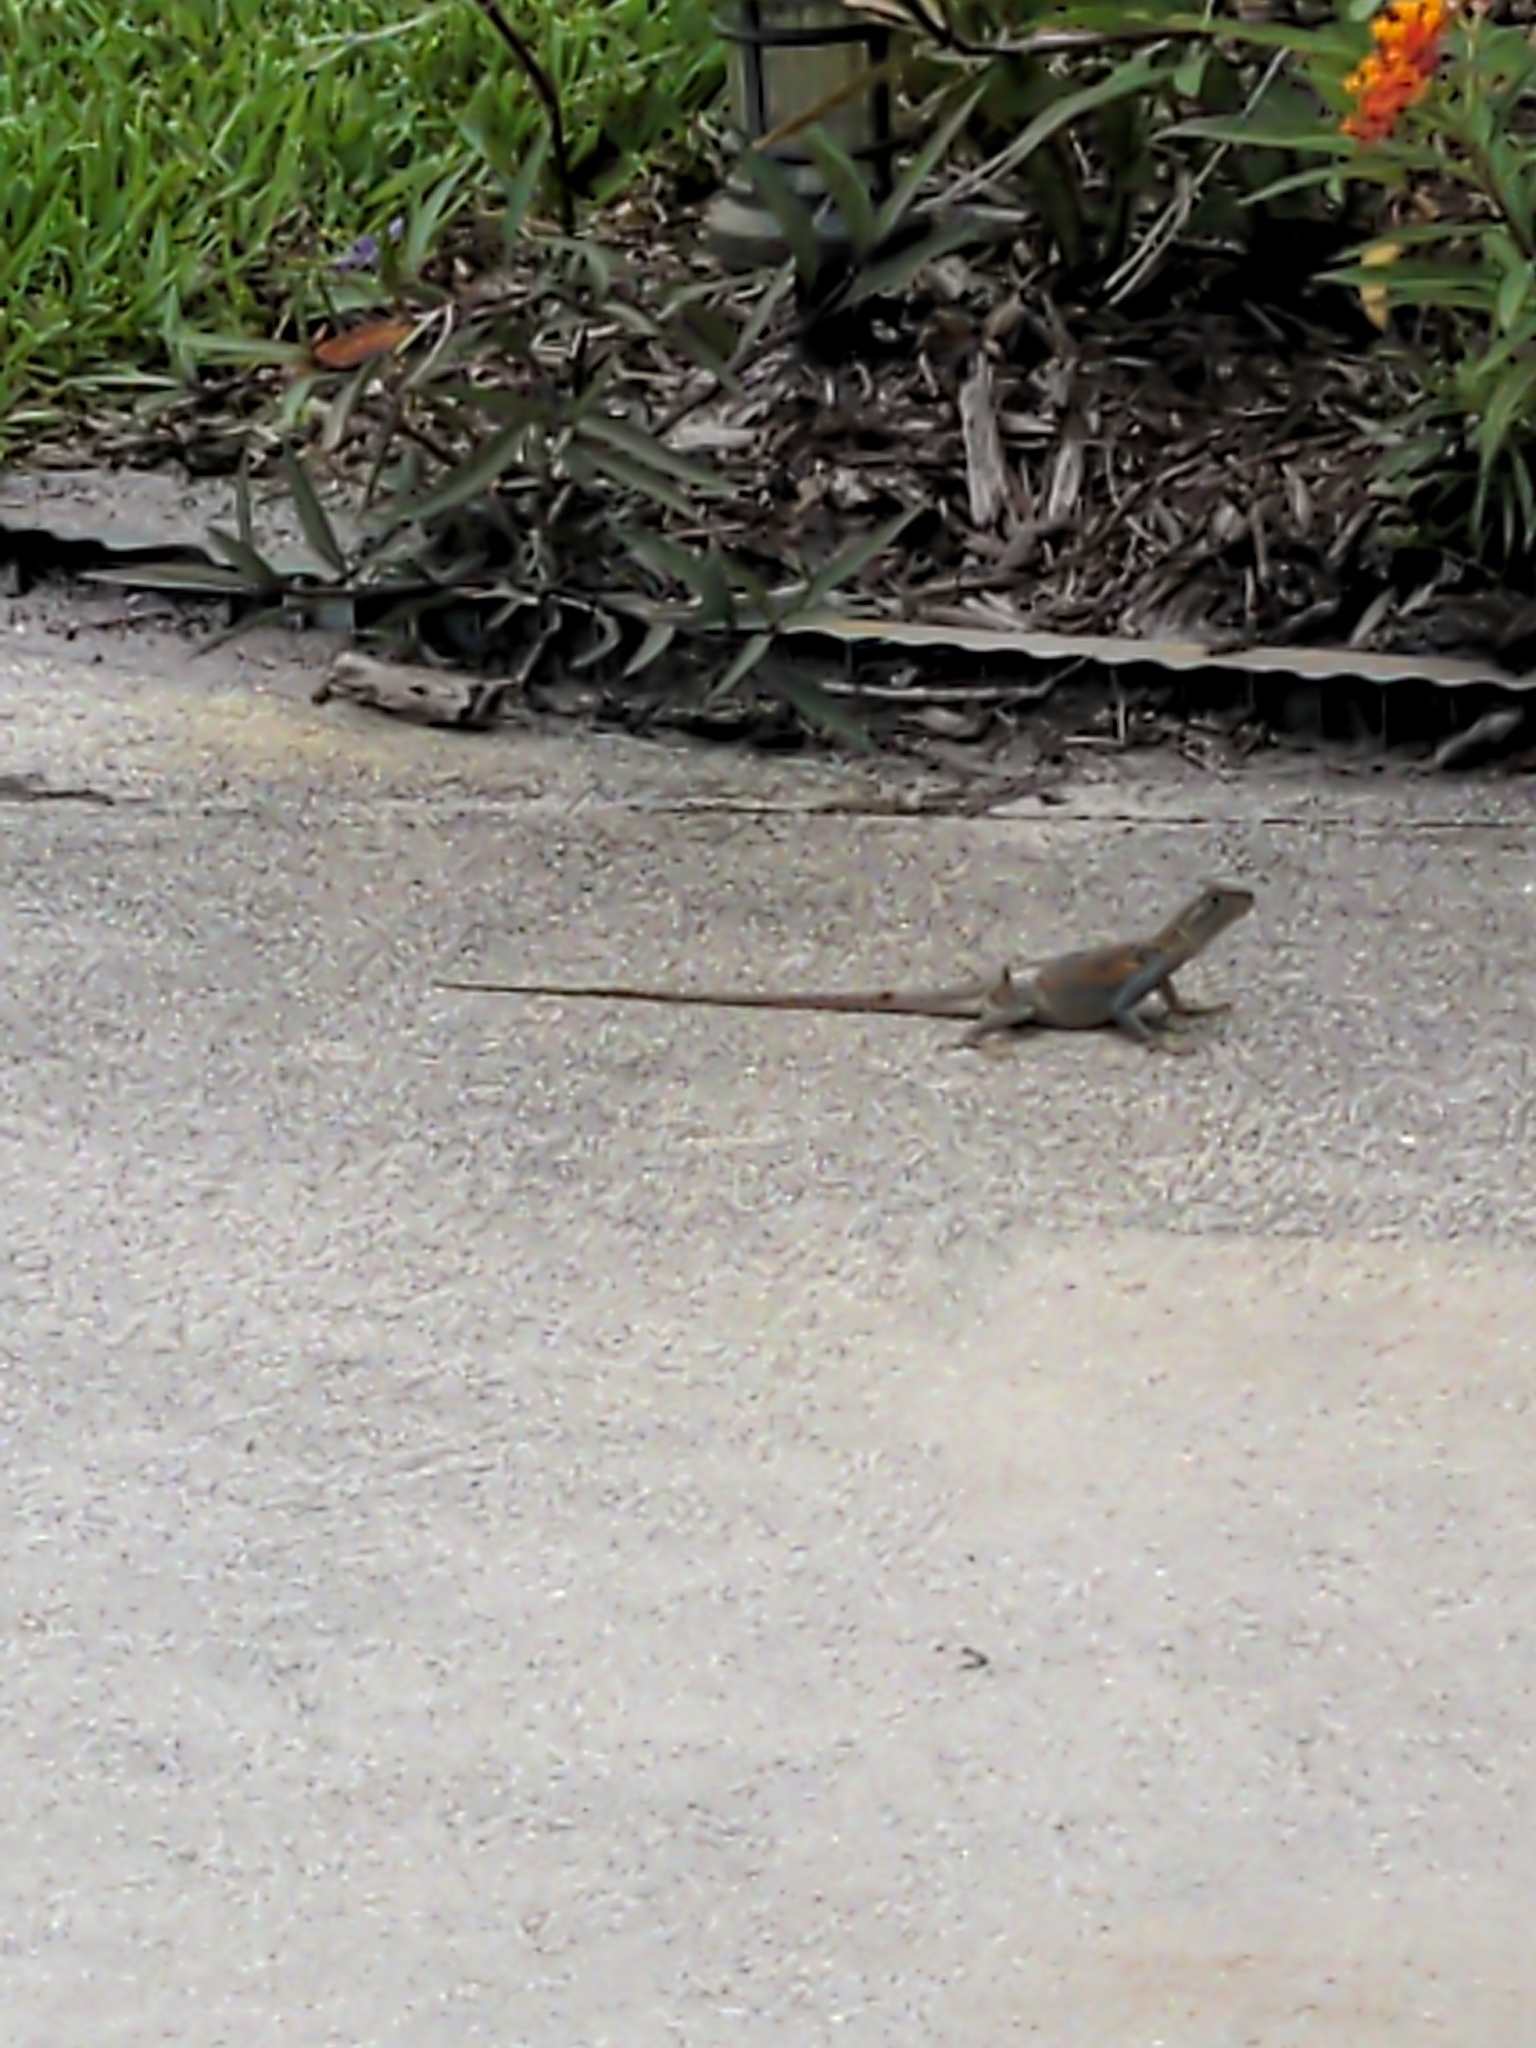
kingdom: Animalia
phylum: Chordata
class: Squamata
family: Agamidae
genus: Agama
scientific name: Agama picticauda
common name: Red-headed agama
